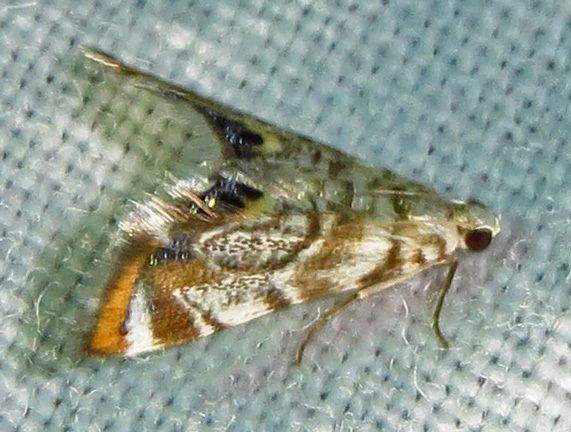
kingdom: Animalia
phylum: Arthropoda
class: Insecta
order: Lepidoptera
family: Crambidae
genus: Eoparargyractis
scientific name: Eoparargyractis irroratalis
